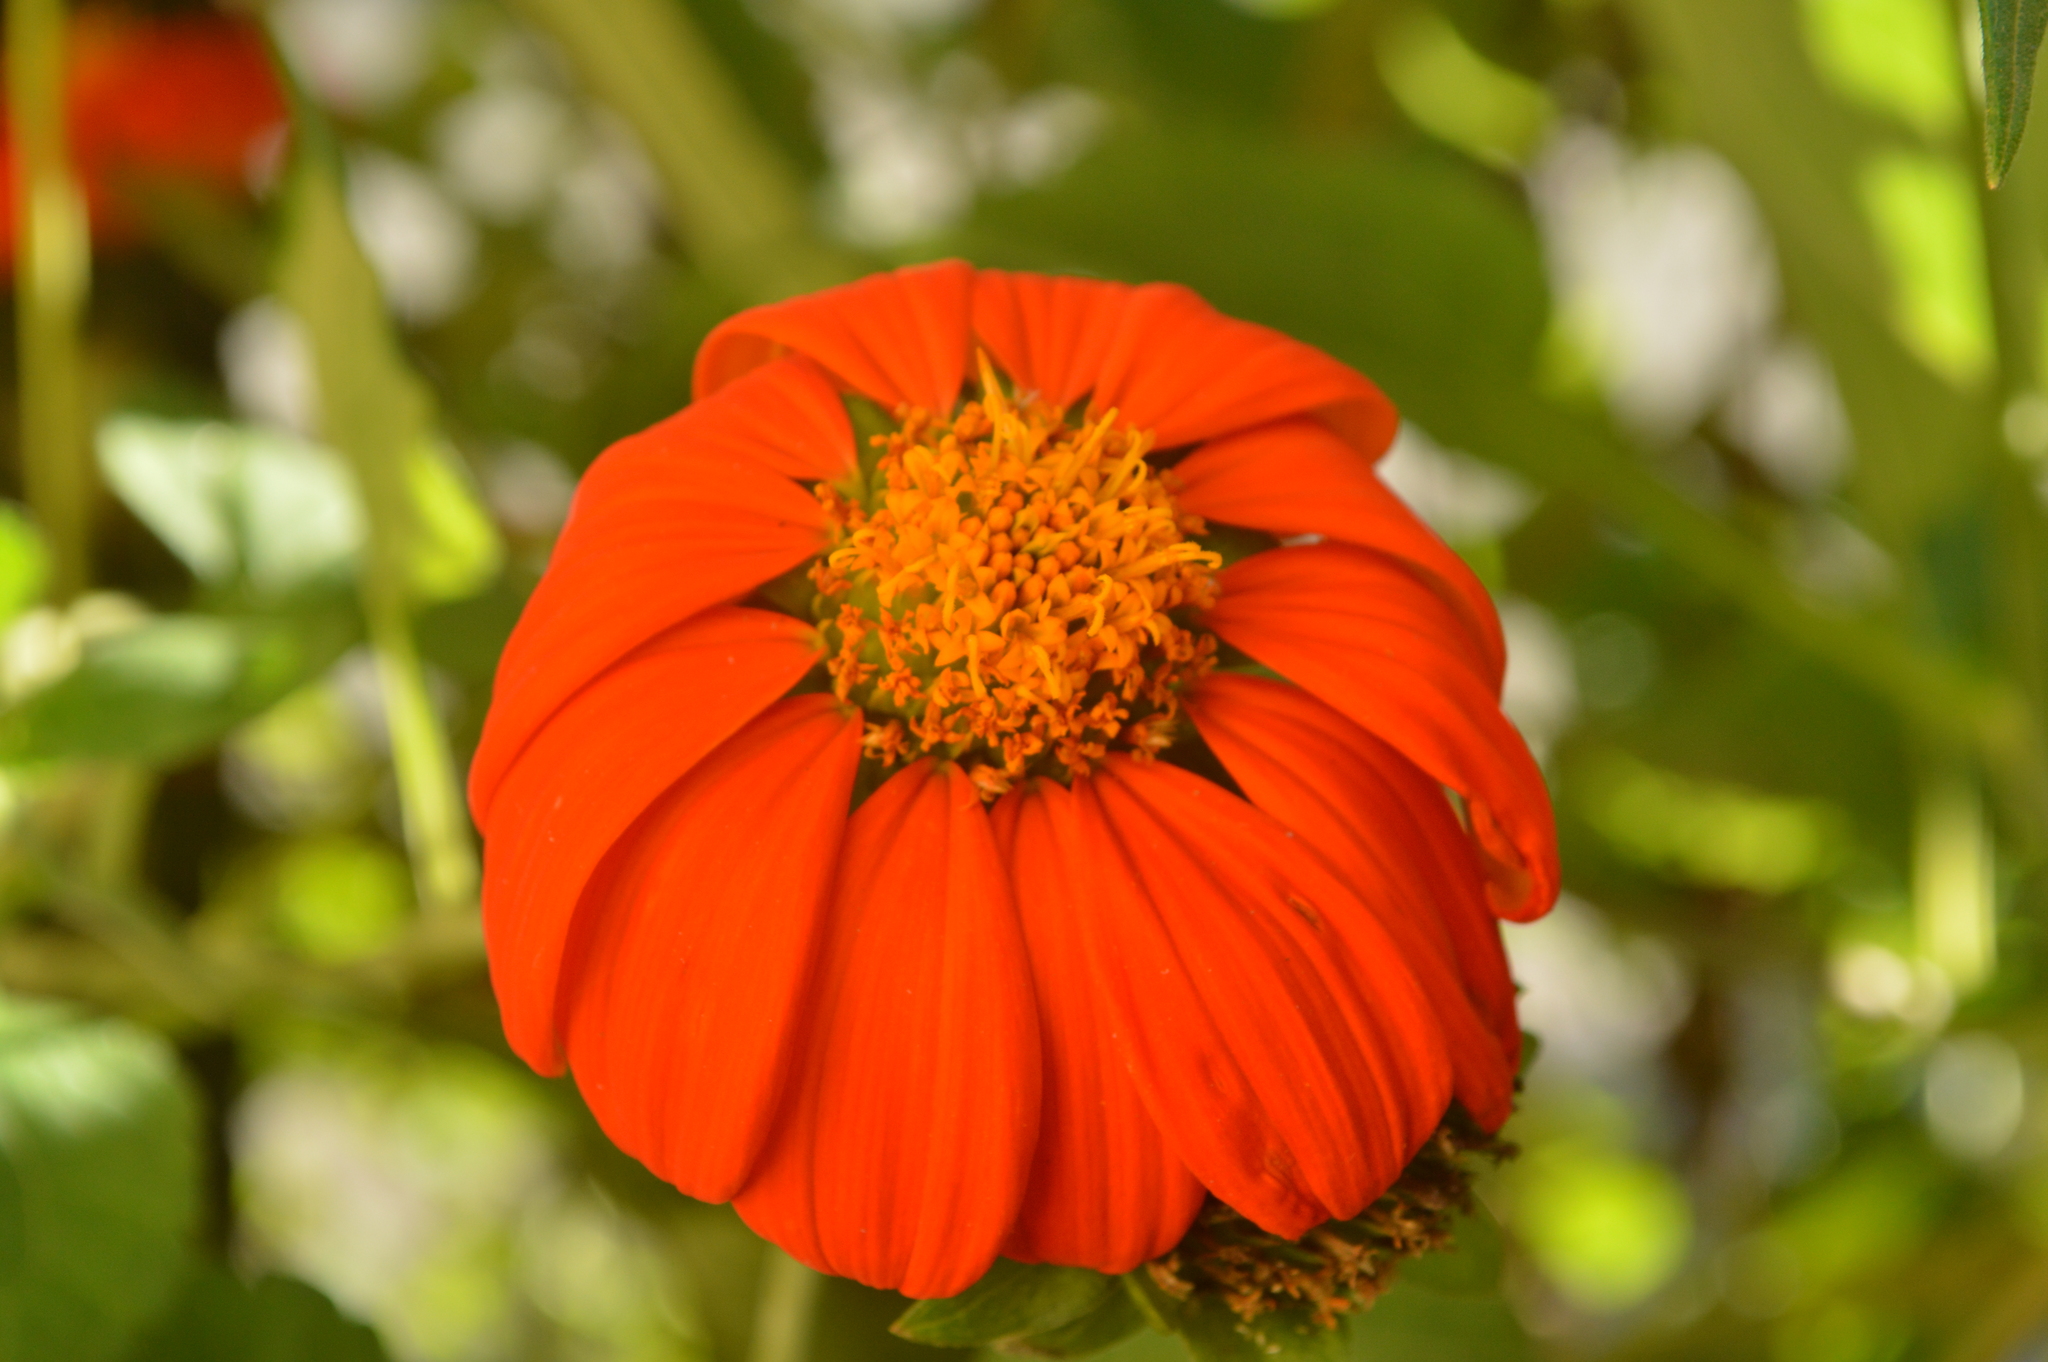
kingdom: Plantae
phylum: Tracheophyta
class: Magnoliopsida
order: Asterales
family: Asteraceae
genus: Tithonia
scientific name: Tithonia rotundifolia
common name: Sunflower
